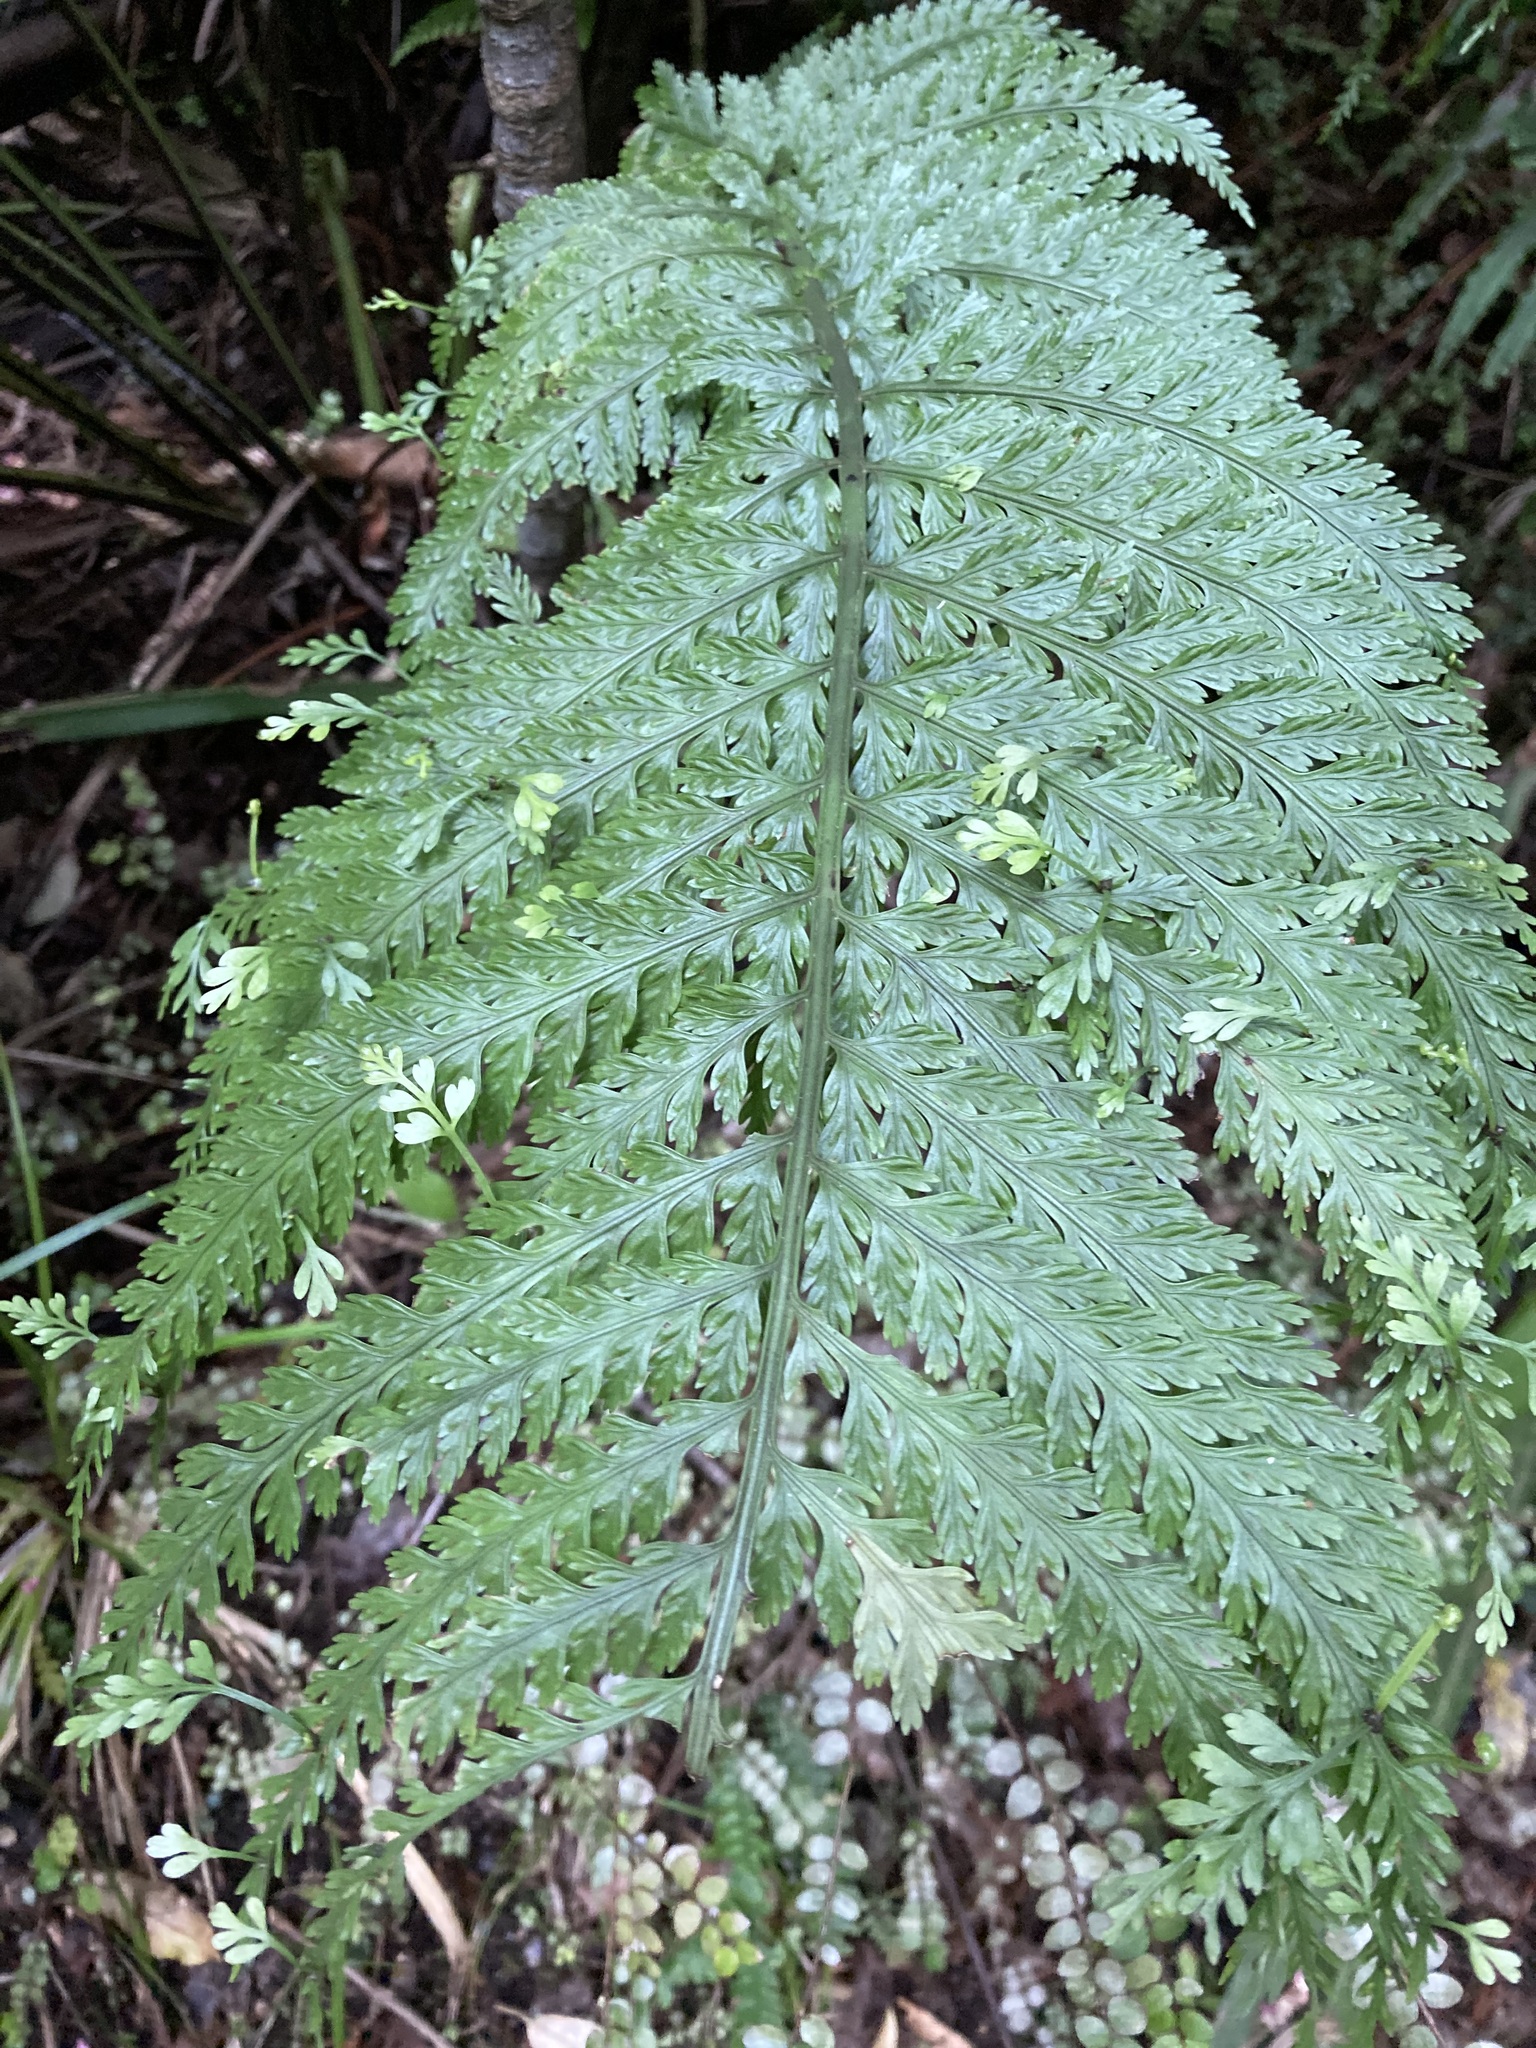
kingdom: Plantae
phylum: Tracheophyta
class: Polypodiopsida
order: Polypodiales
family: Aspleniaceae
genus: Asplenium
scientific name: Asplenium bulbiferum
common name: Mother fern
